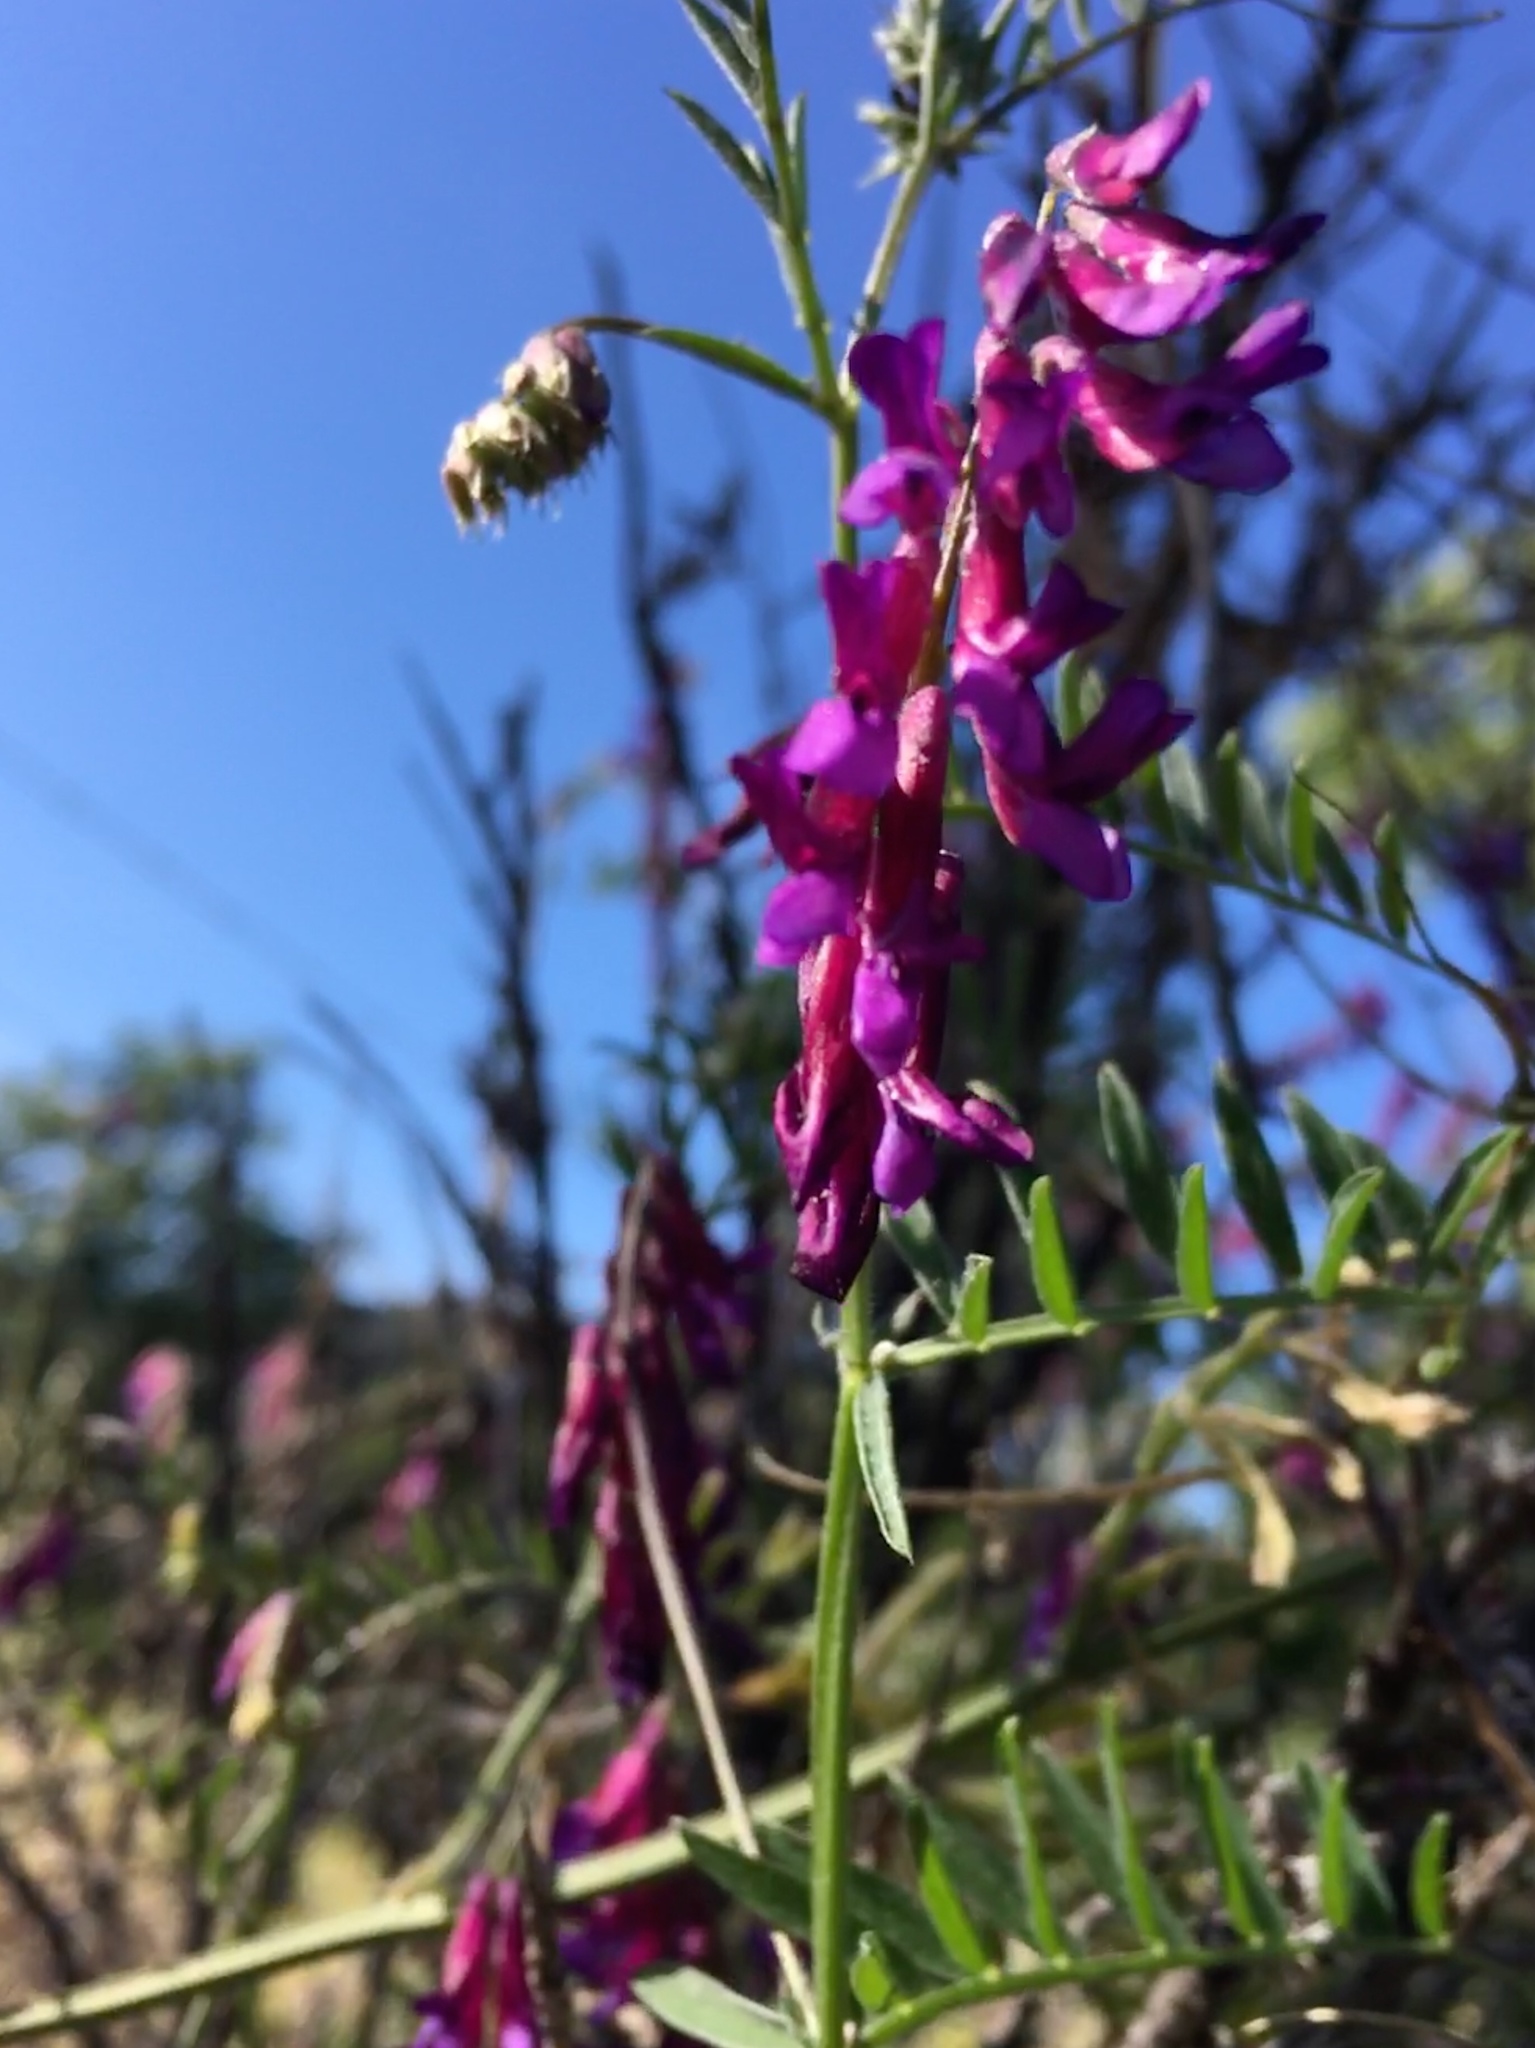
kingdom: Plantae
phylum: Tracheophyta
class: Magnoliopsida
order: Fabales
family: Fabaceae
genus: Vicia
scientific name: Vicia villosa
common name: Fodder vetch
